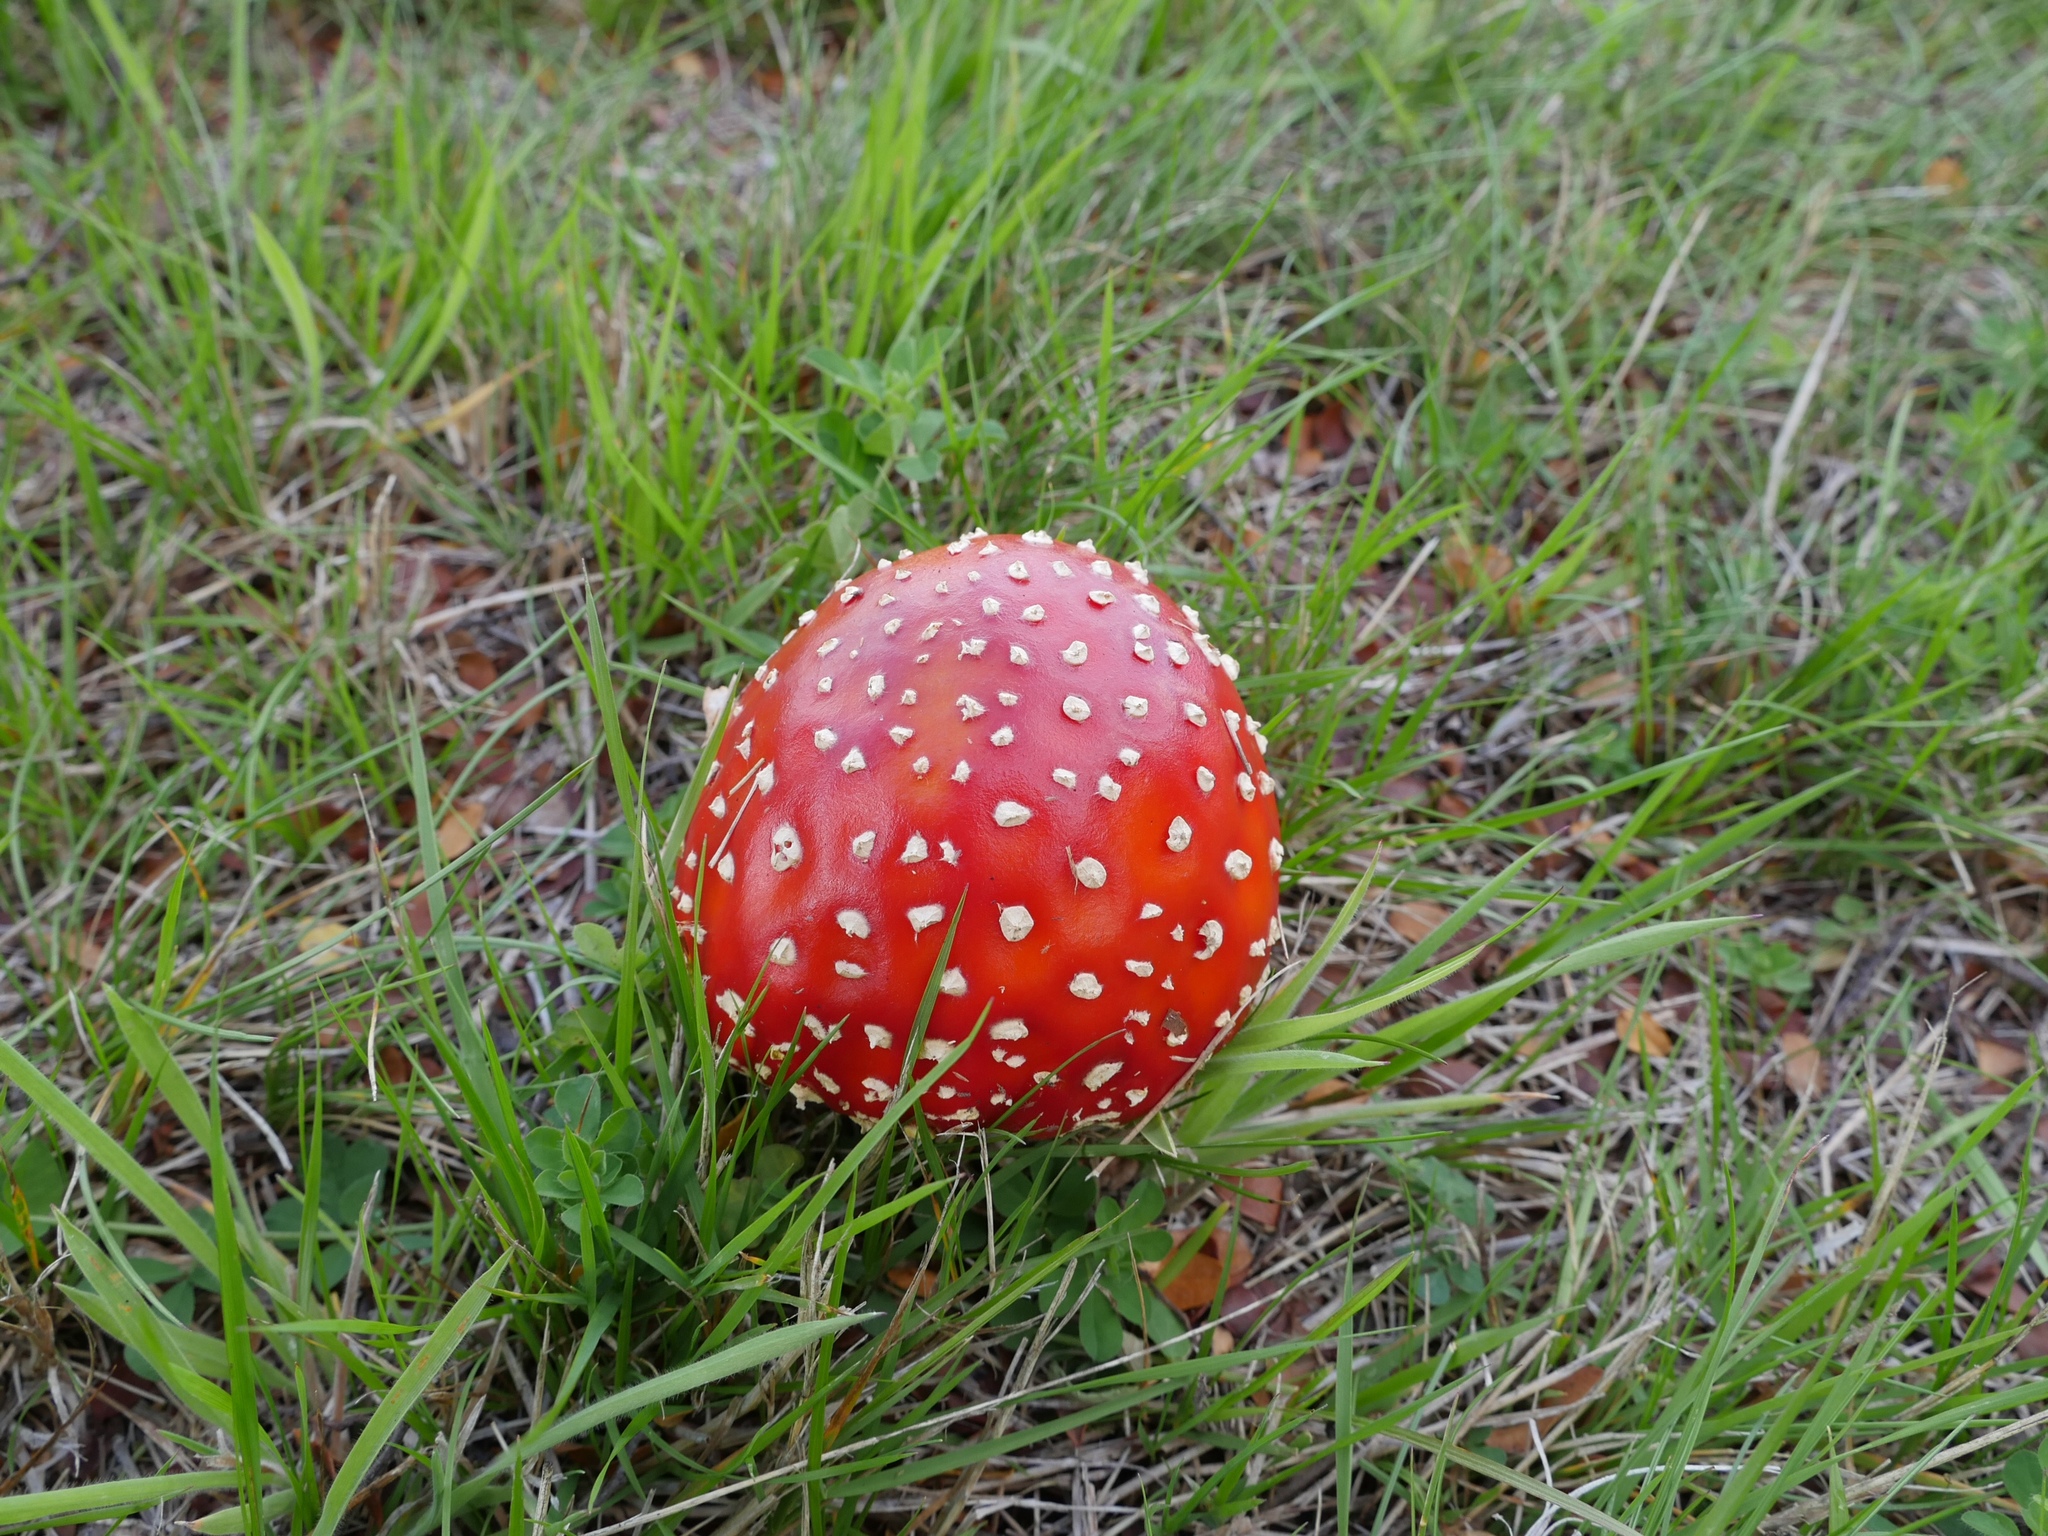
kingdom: Fungi
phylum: Basidiomycota
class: Agaricomycetes
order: Agaricales
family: Amanitaceae
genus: Amanita
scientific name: Amanita muscaria
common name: Fly agaric
